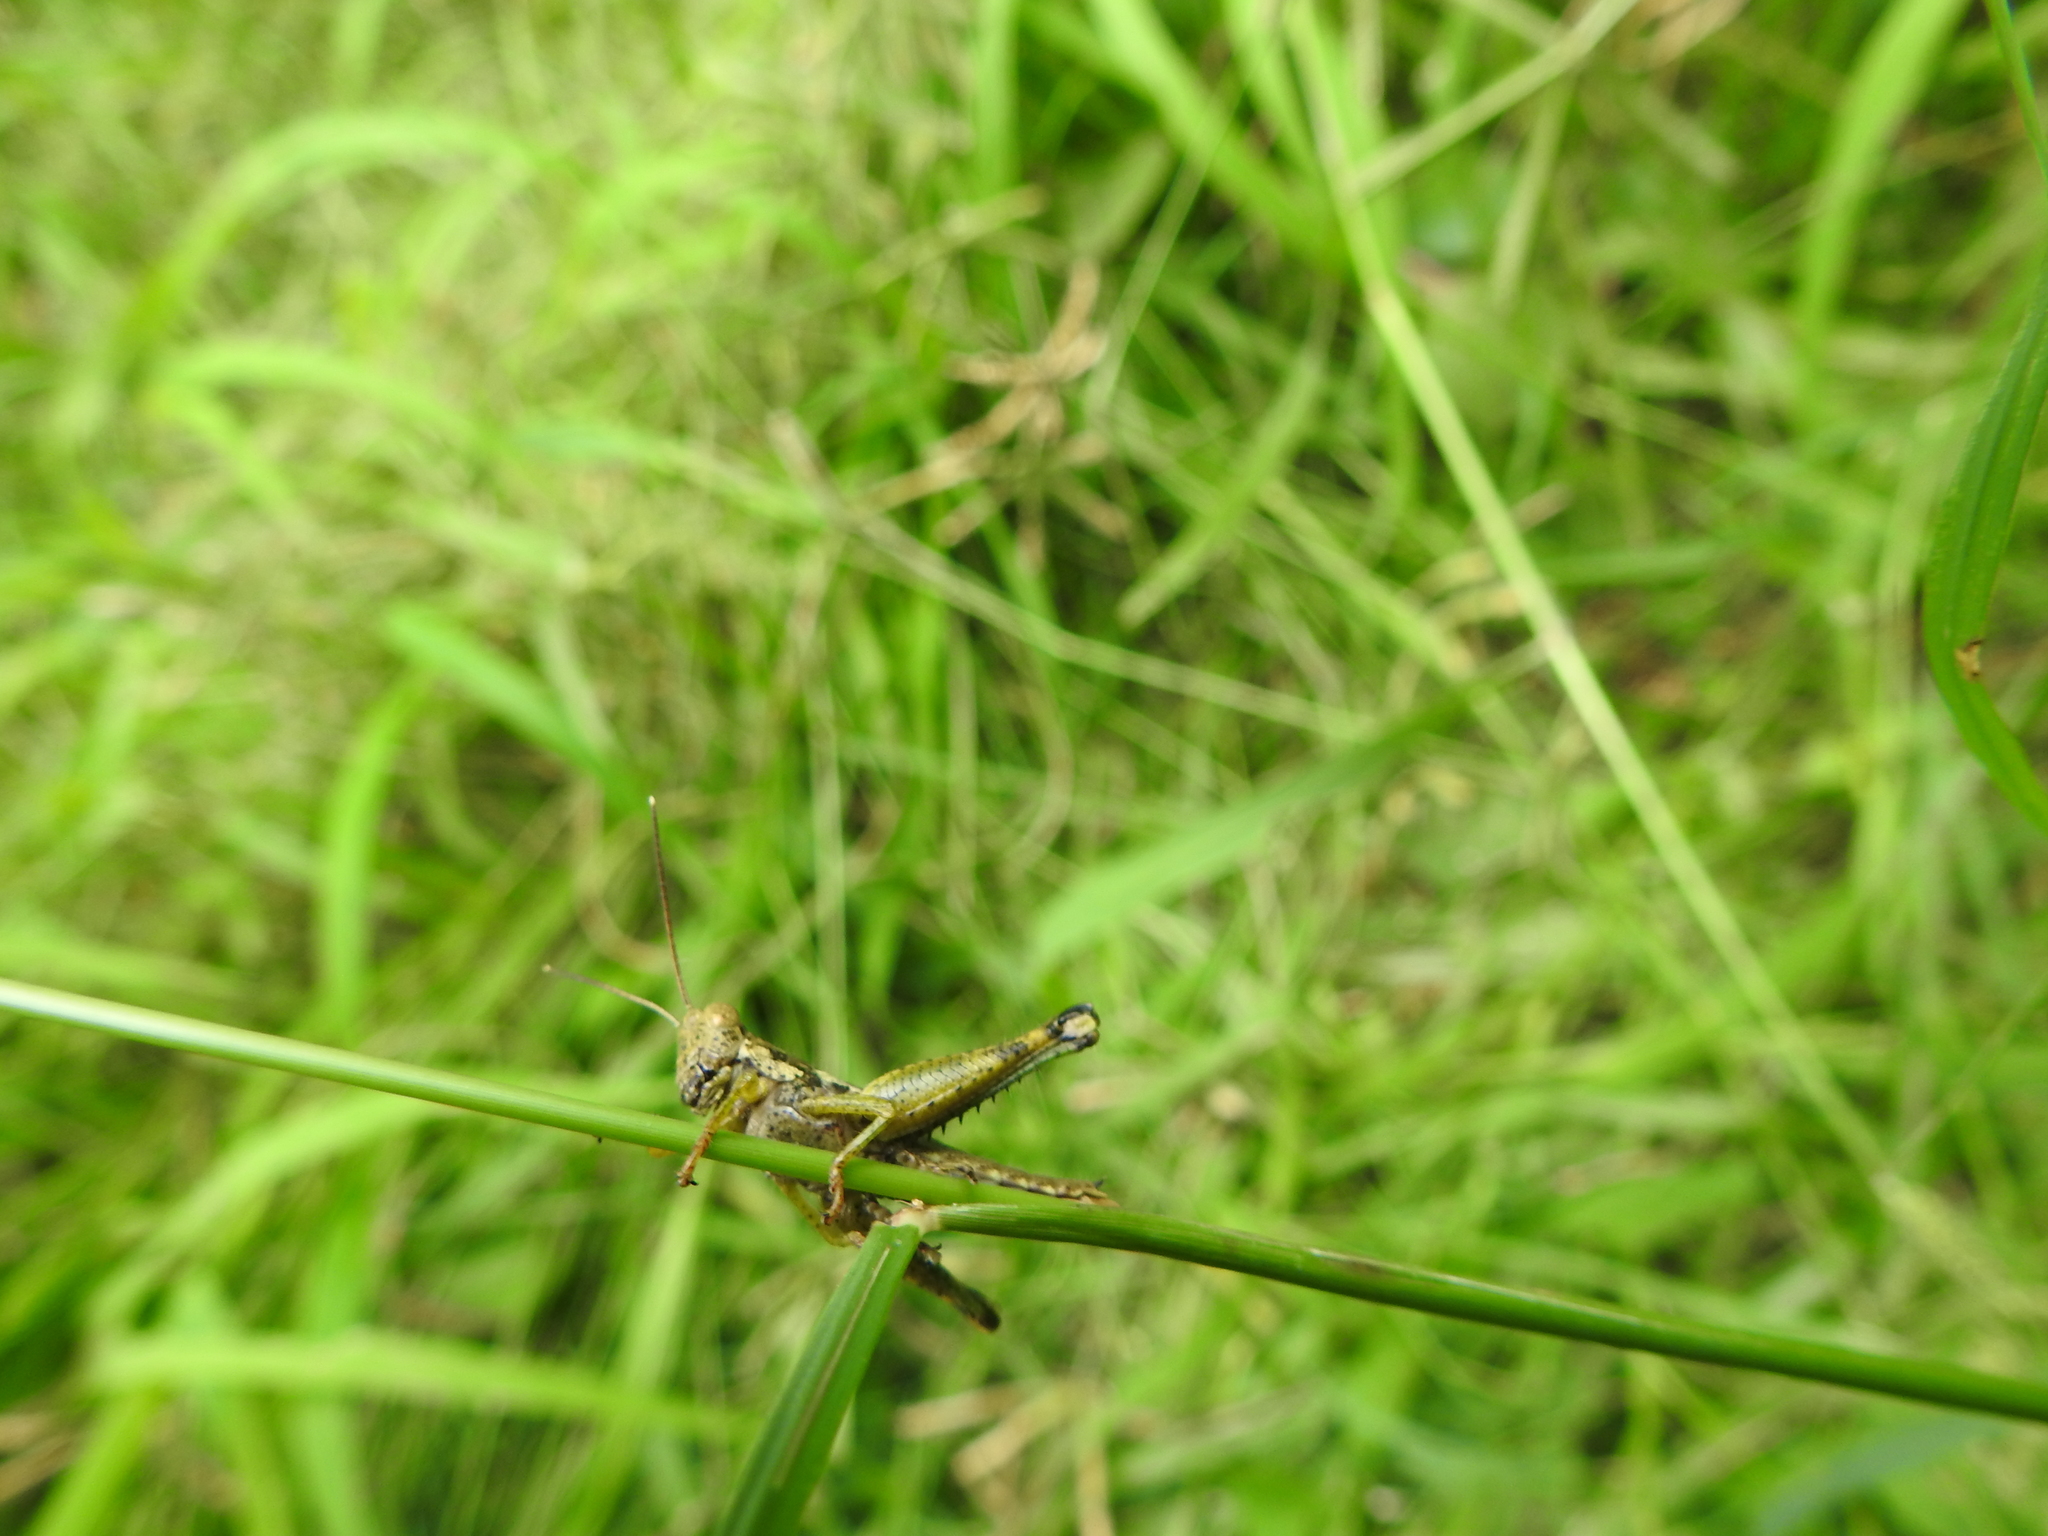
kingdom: Animalia
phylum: Arthropoda
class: Insecta
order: Orthoptera
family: Acrididae
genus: Pirithoicus
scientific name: Pirithoicus ophthalmicus
